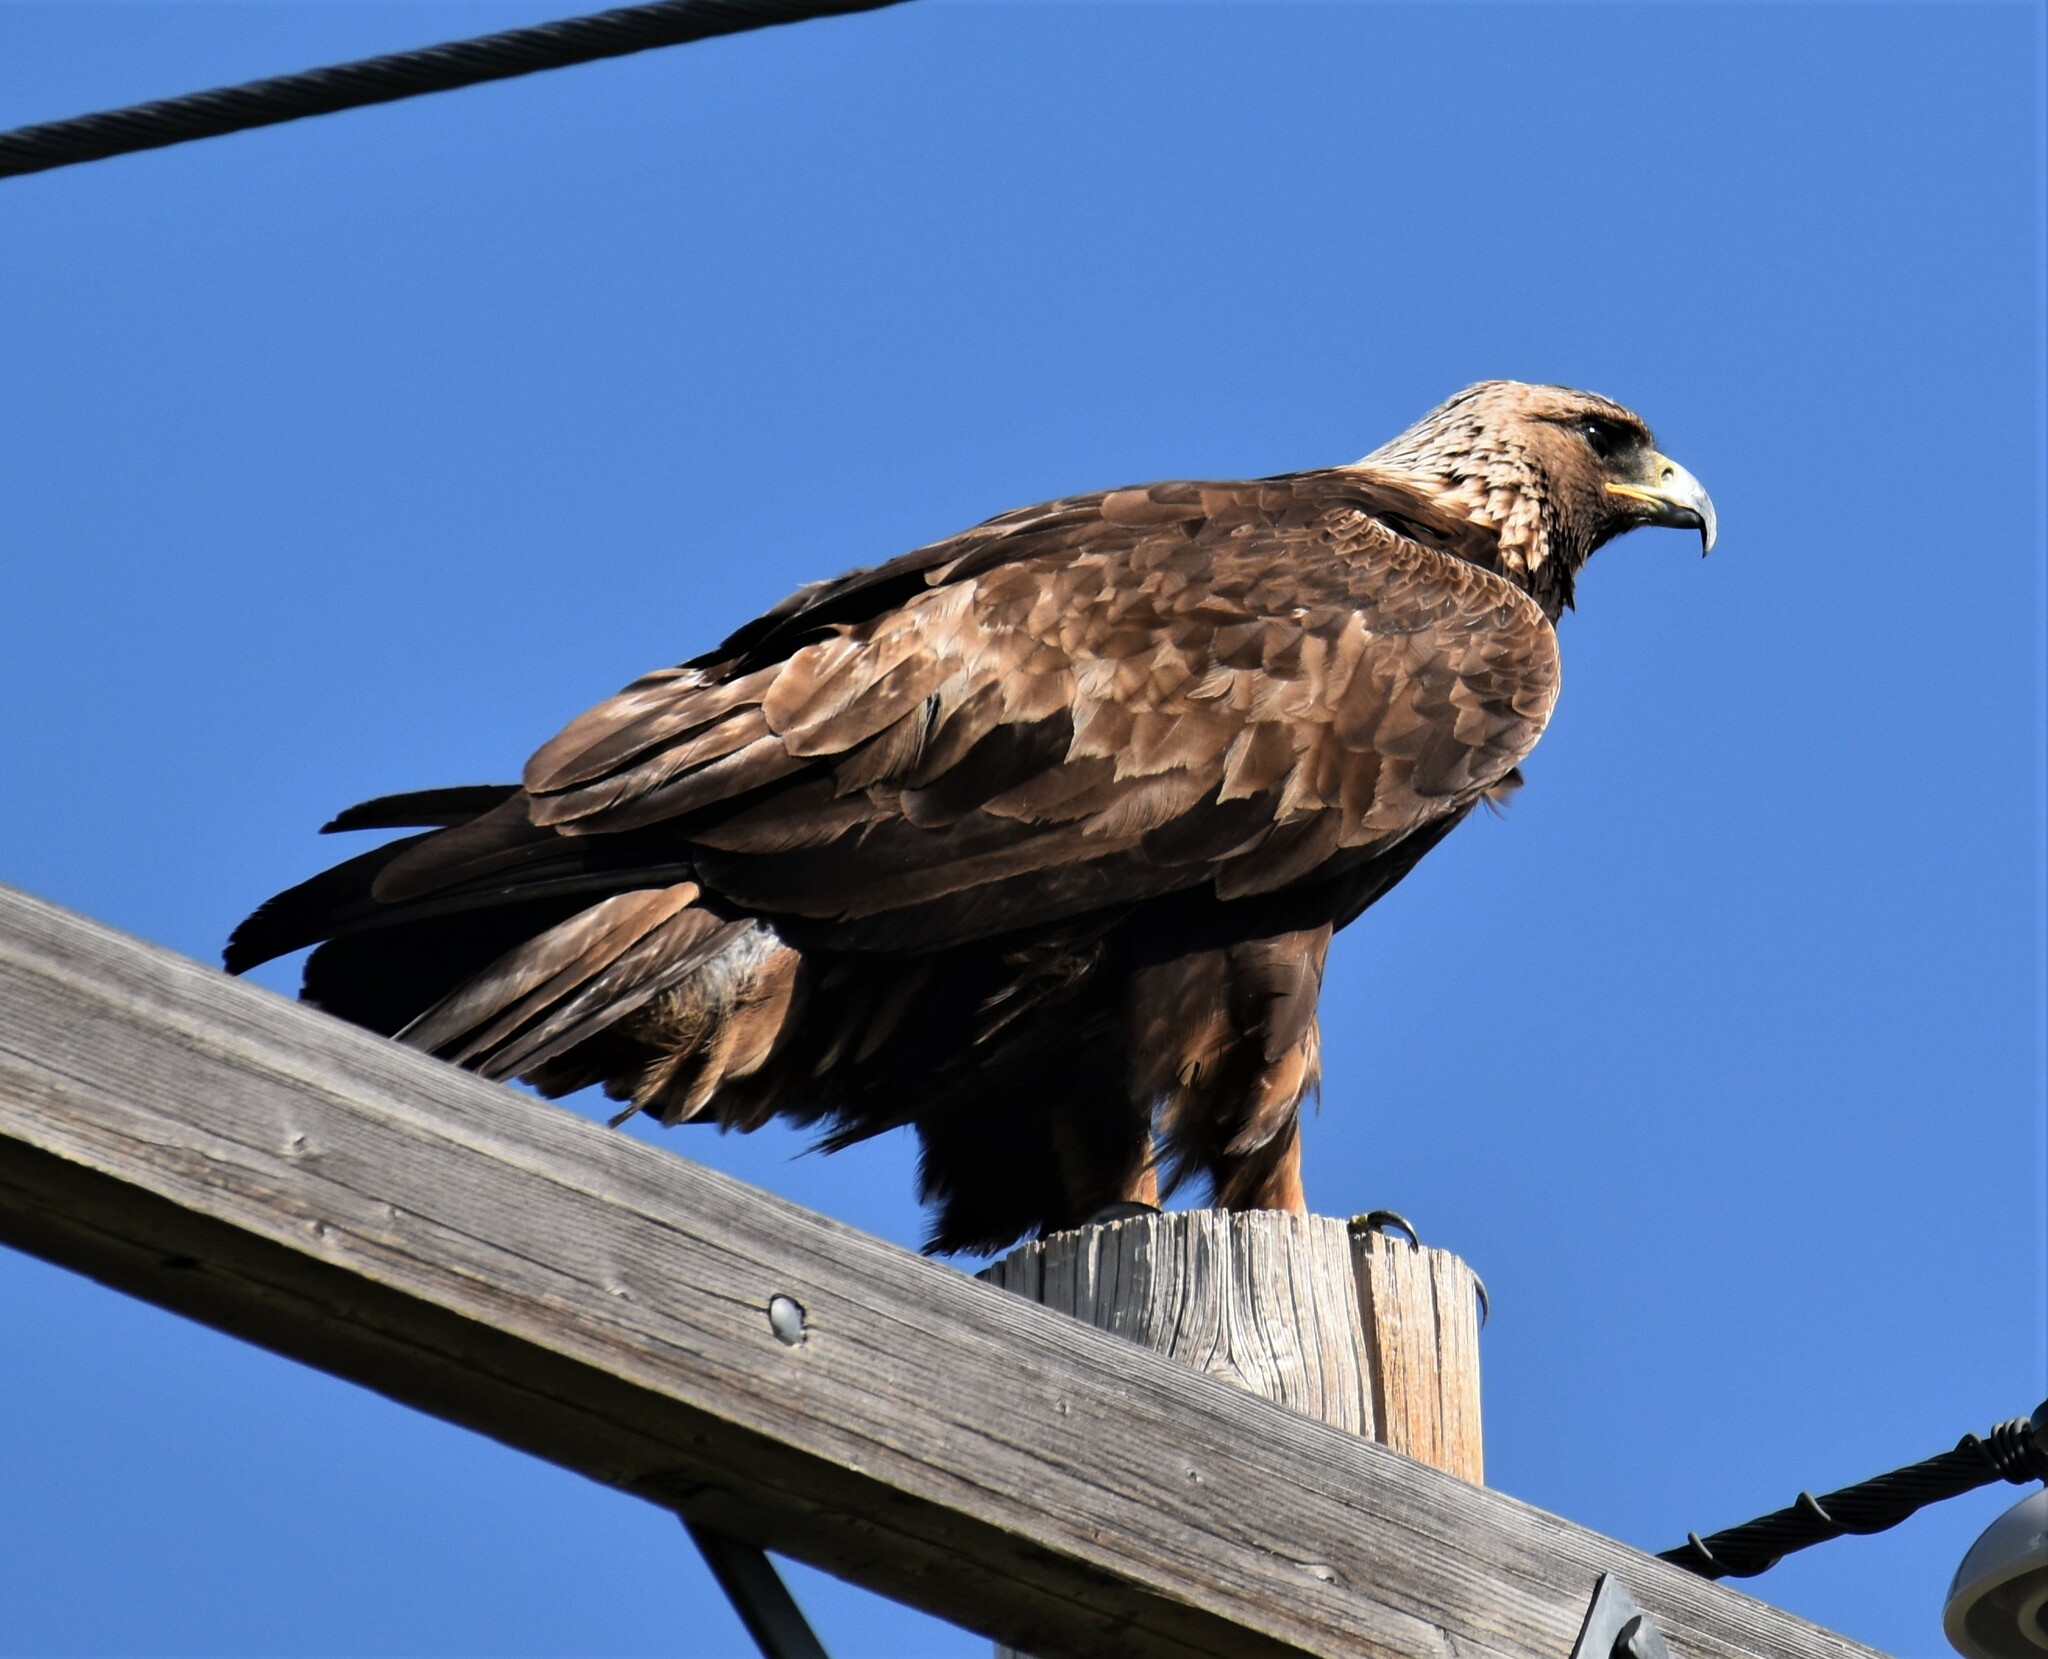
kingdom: Animalia
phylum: Chordata
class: Aves
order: Accipitriformes
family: Accipitridae
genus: Aquila
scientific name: Aquila chrysaetos
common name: Golden eagle
